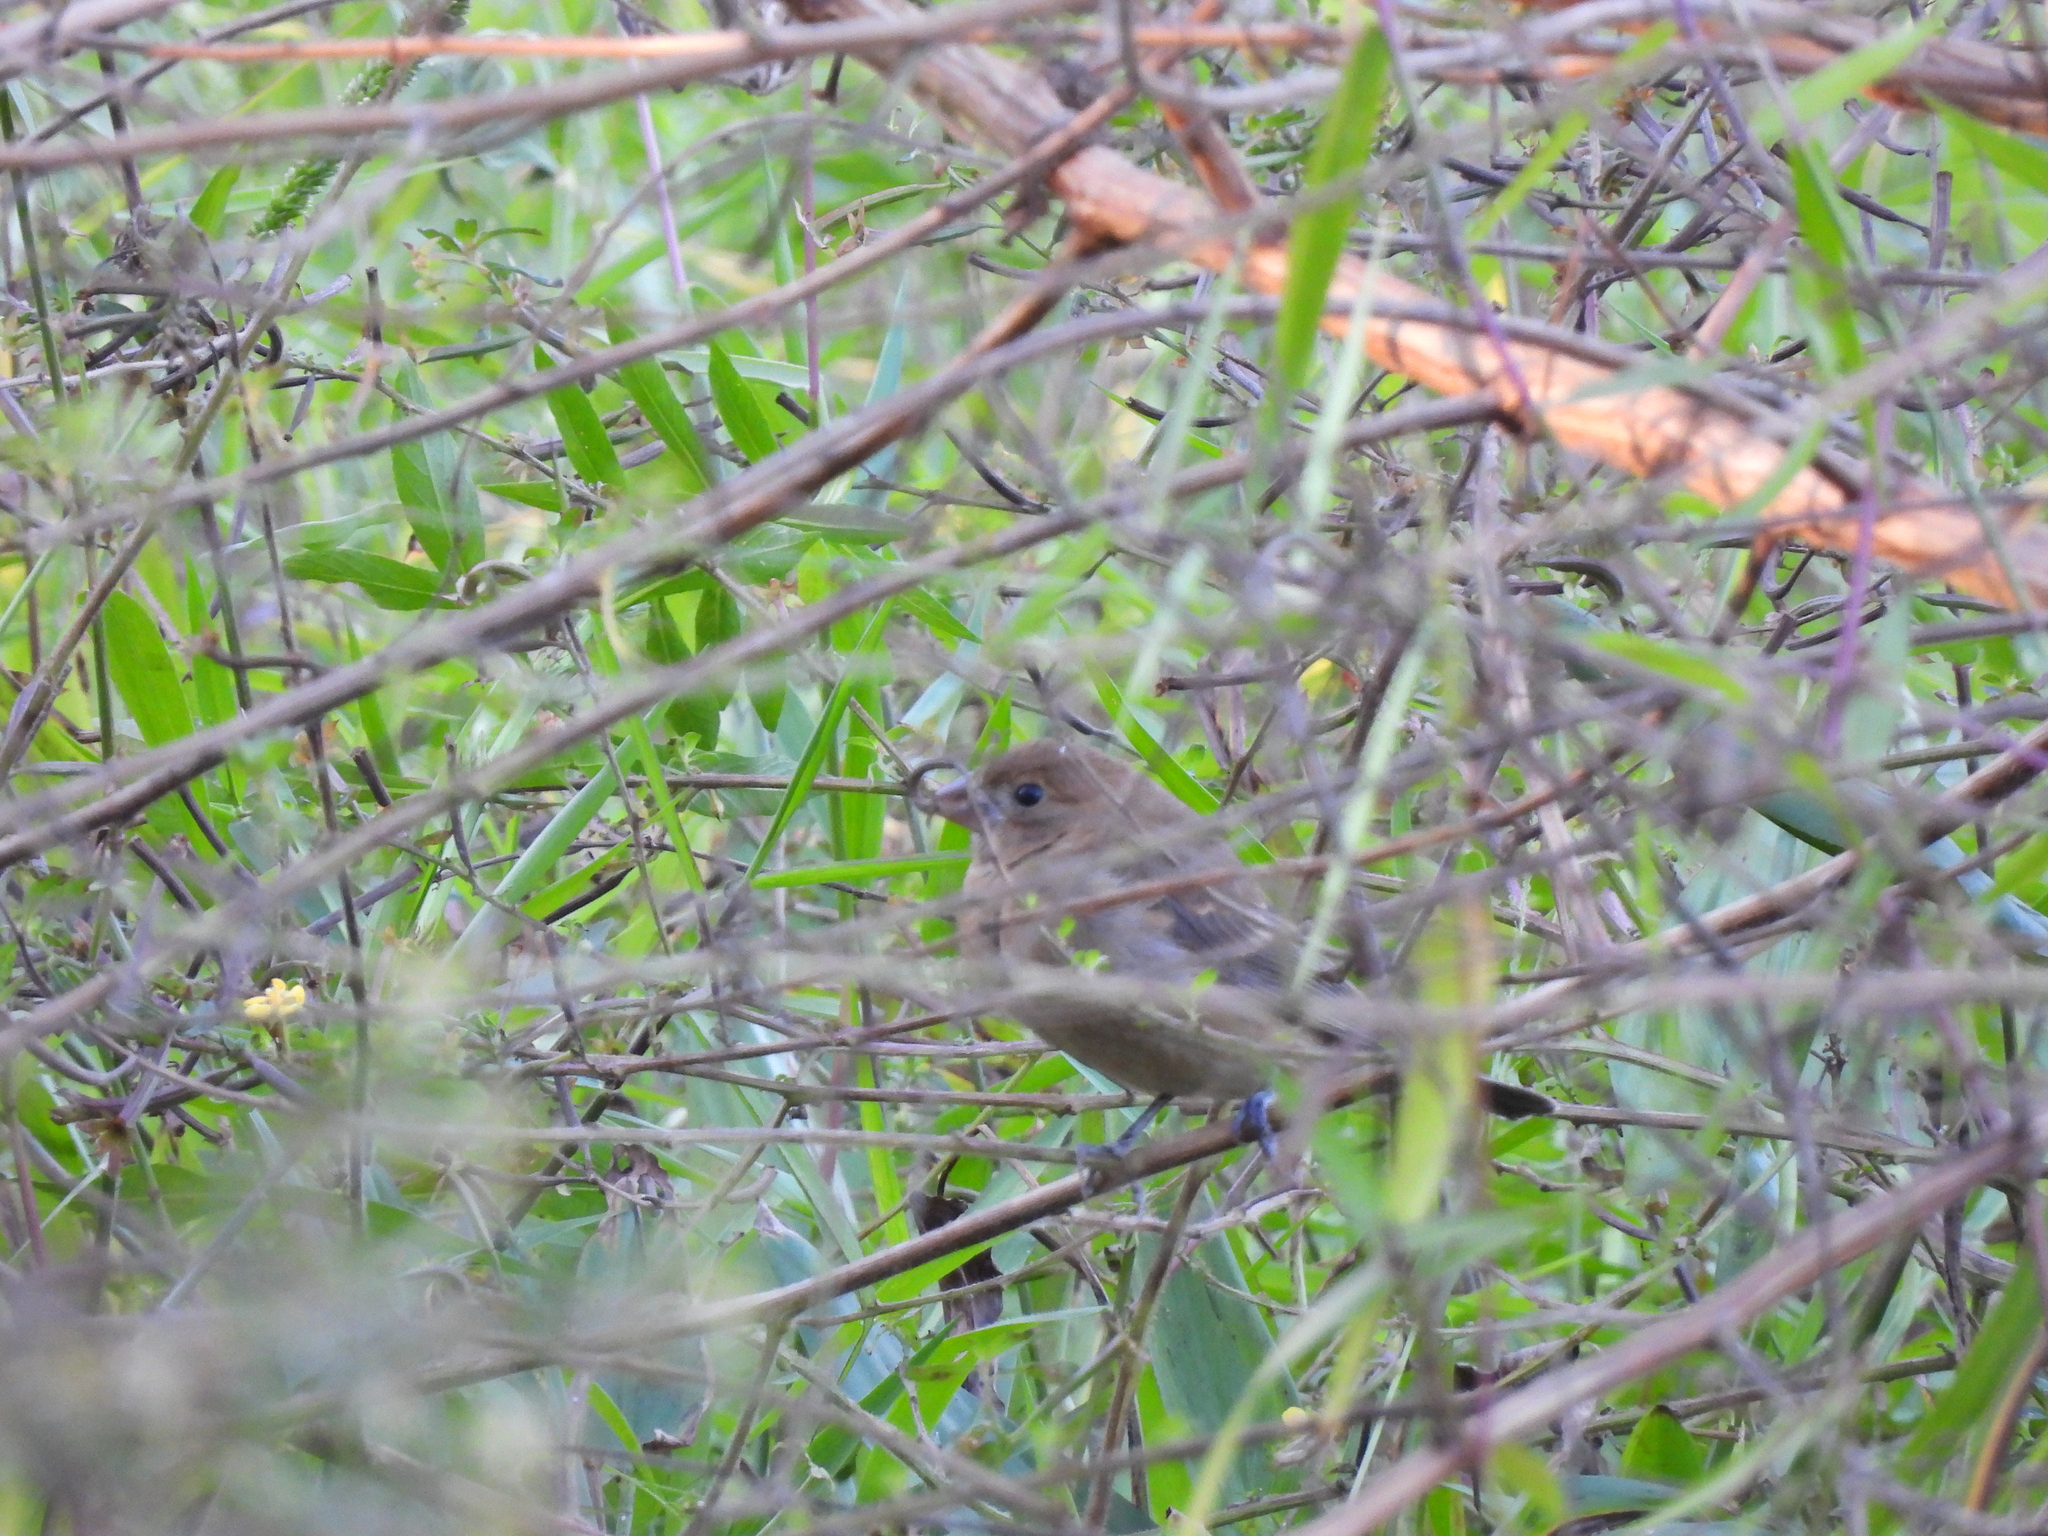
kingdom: Animalia
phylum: Chordata
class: Aves
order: Passeriformes
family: Cardinalidae
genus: Passerina
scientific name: Passerina cyanea
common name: Indigo bunting
